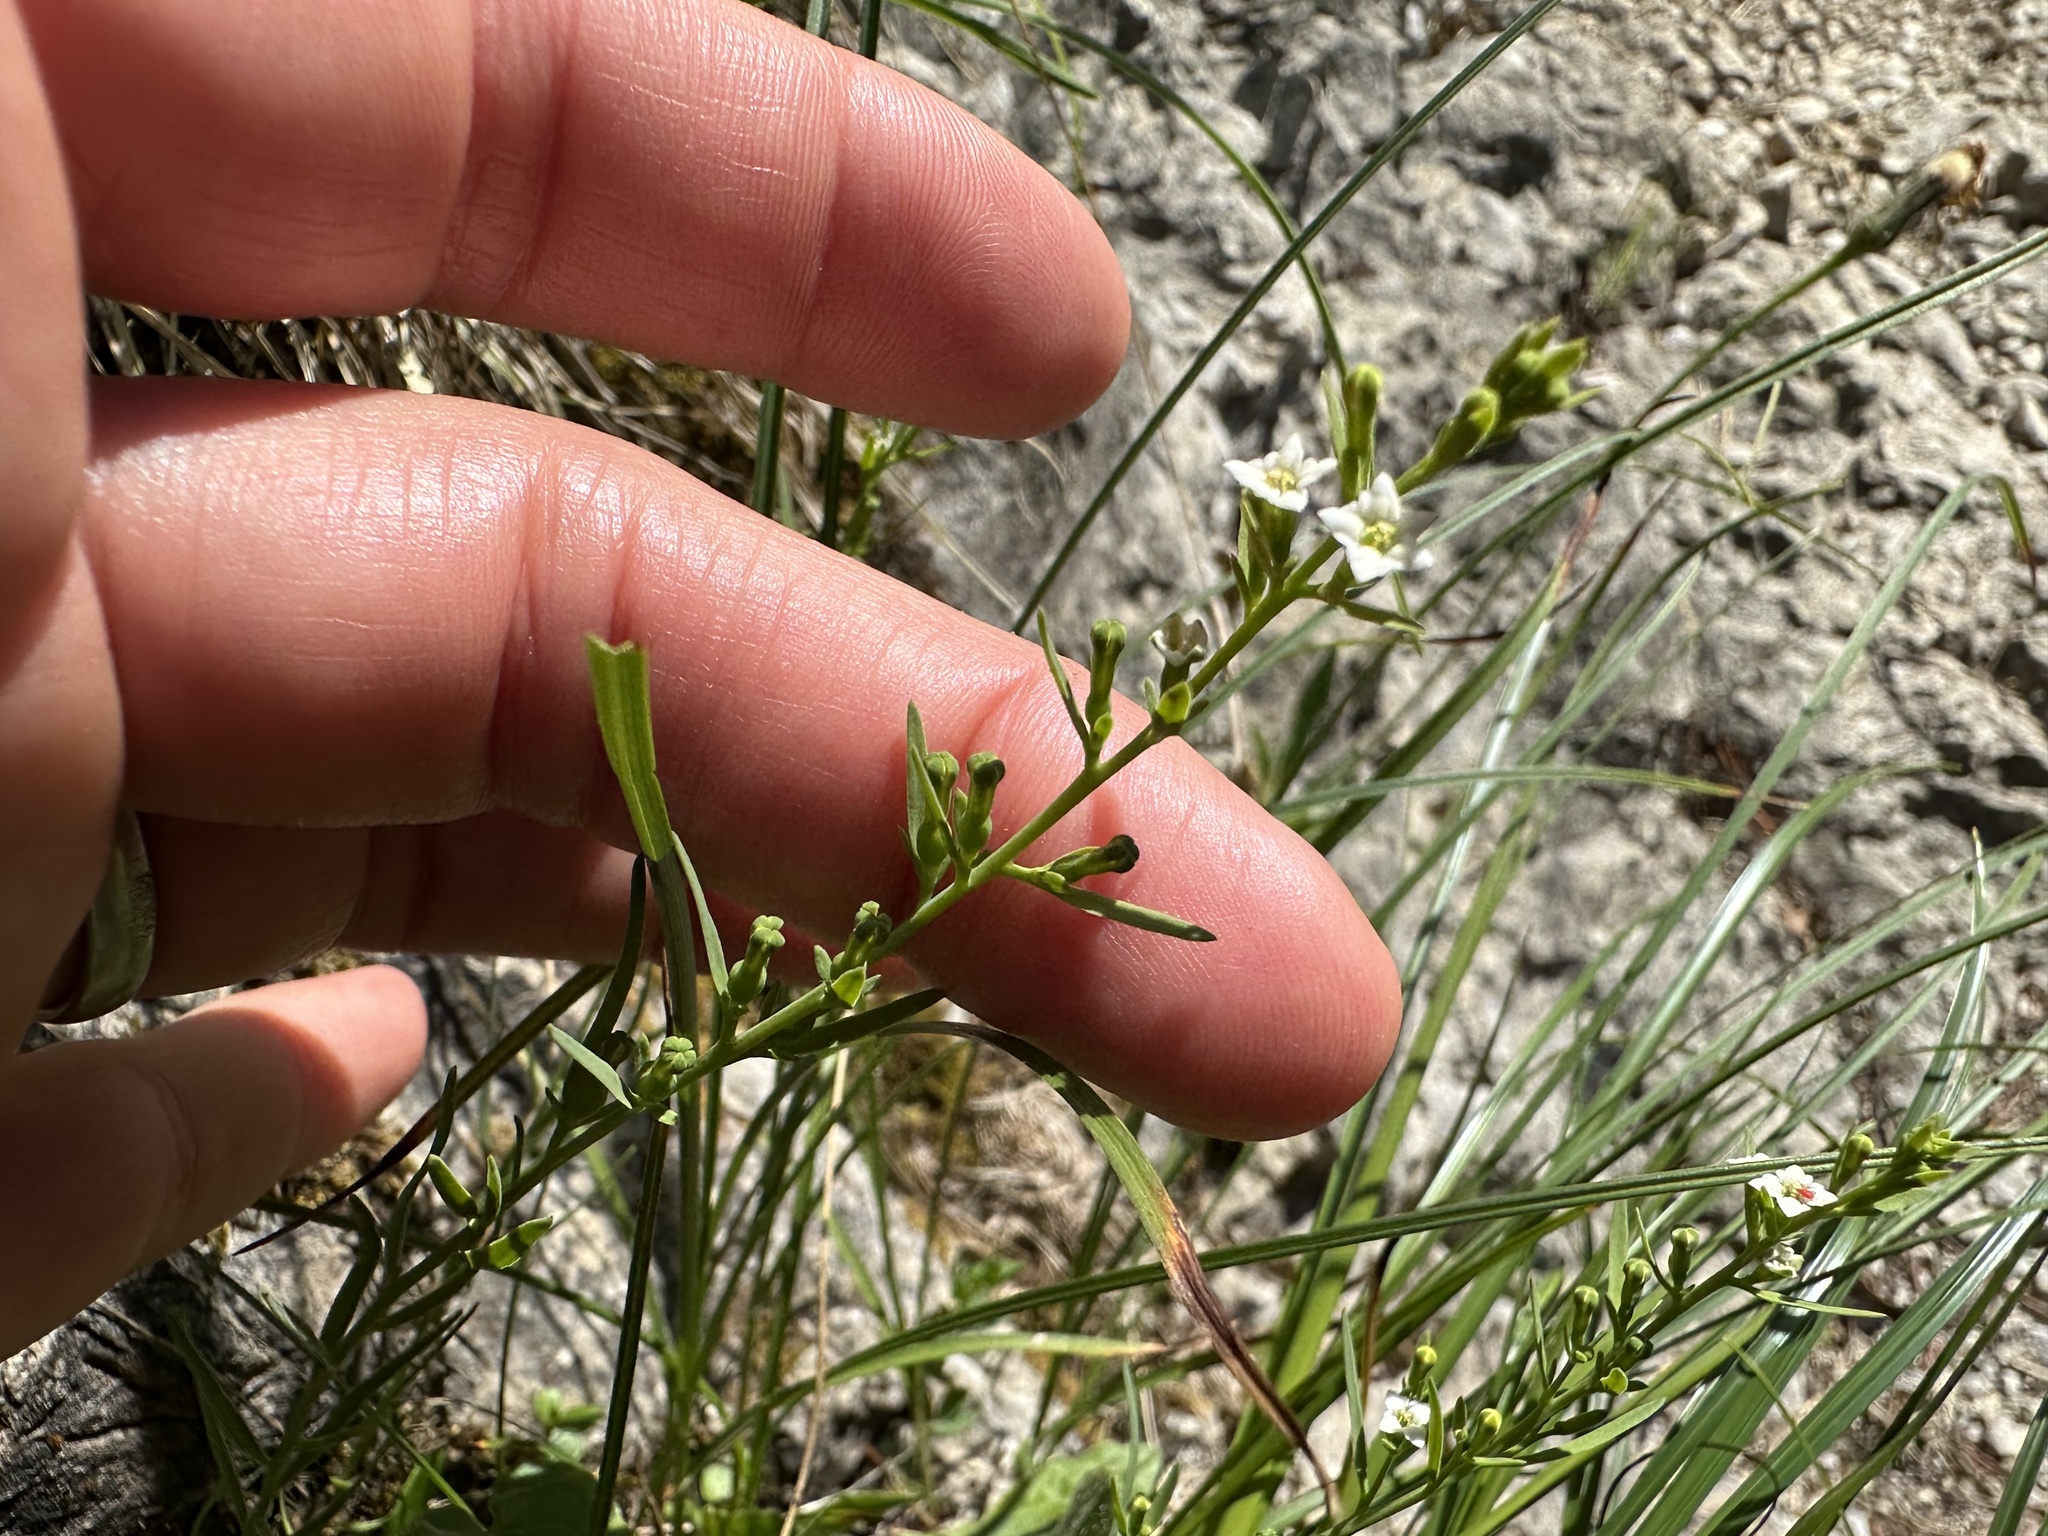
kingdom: Plantae
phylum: Tracheophyta
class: Magnoliopsida
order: Santalales
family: Thesiaceae
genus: Thesium
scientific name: Thesium alpinum
